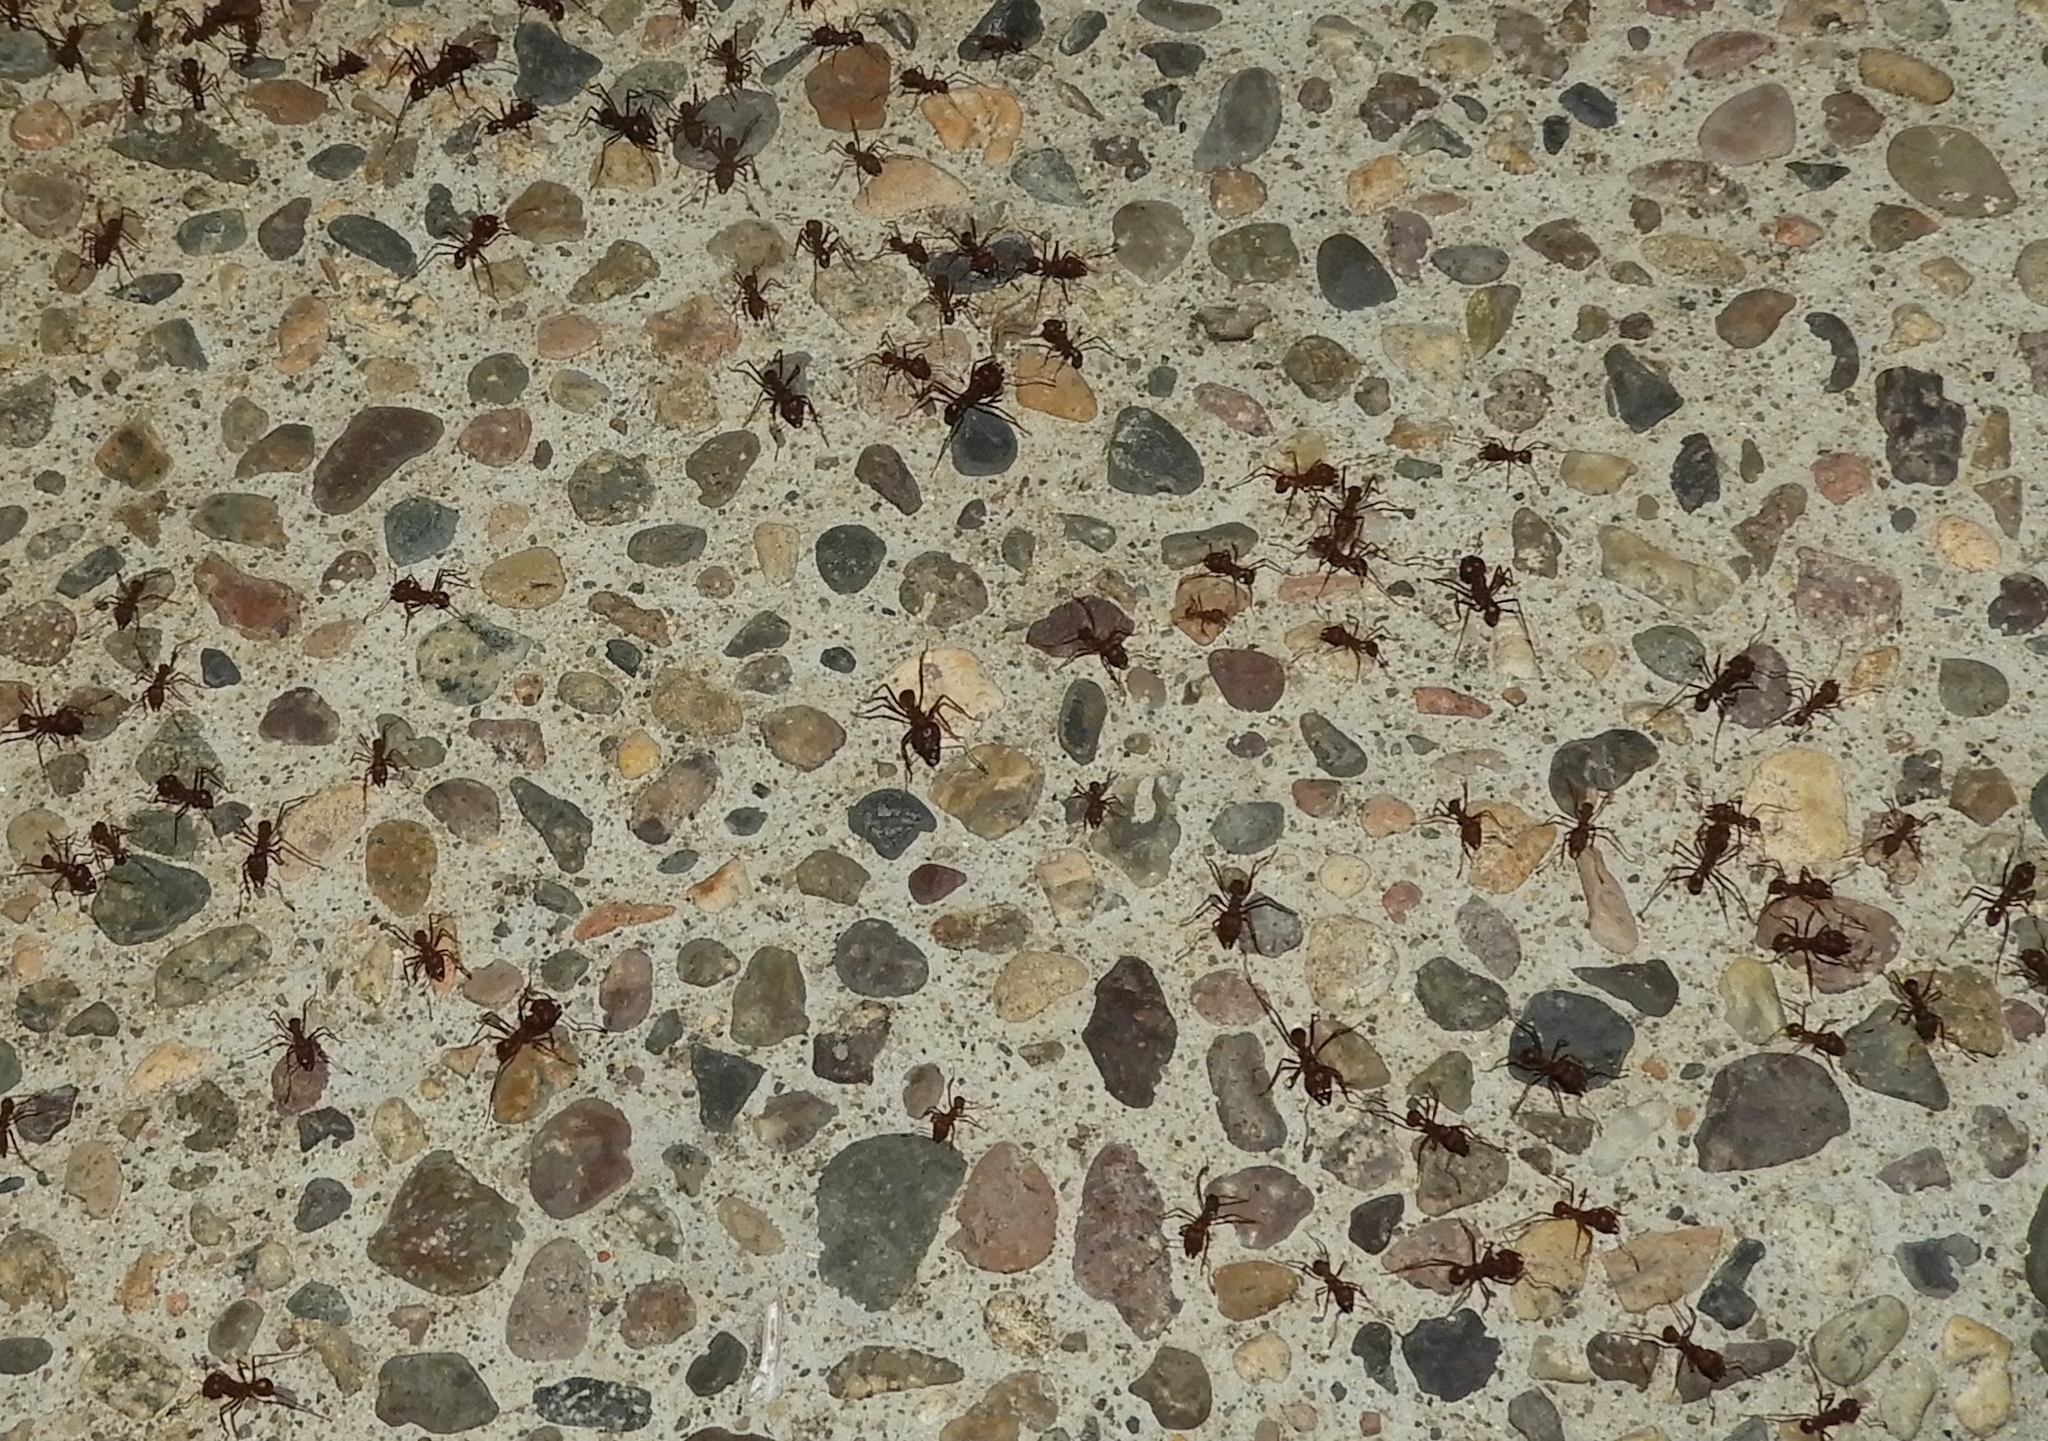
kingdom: Animalia
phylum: Arthropoda
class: Insecta
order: Hymenoptera
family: Formicidae
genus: Atta
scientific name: Atta mexicana
